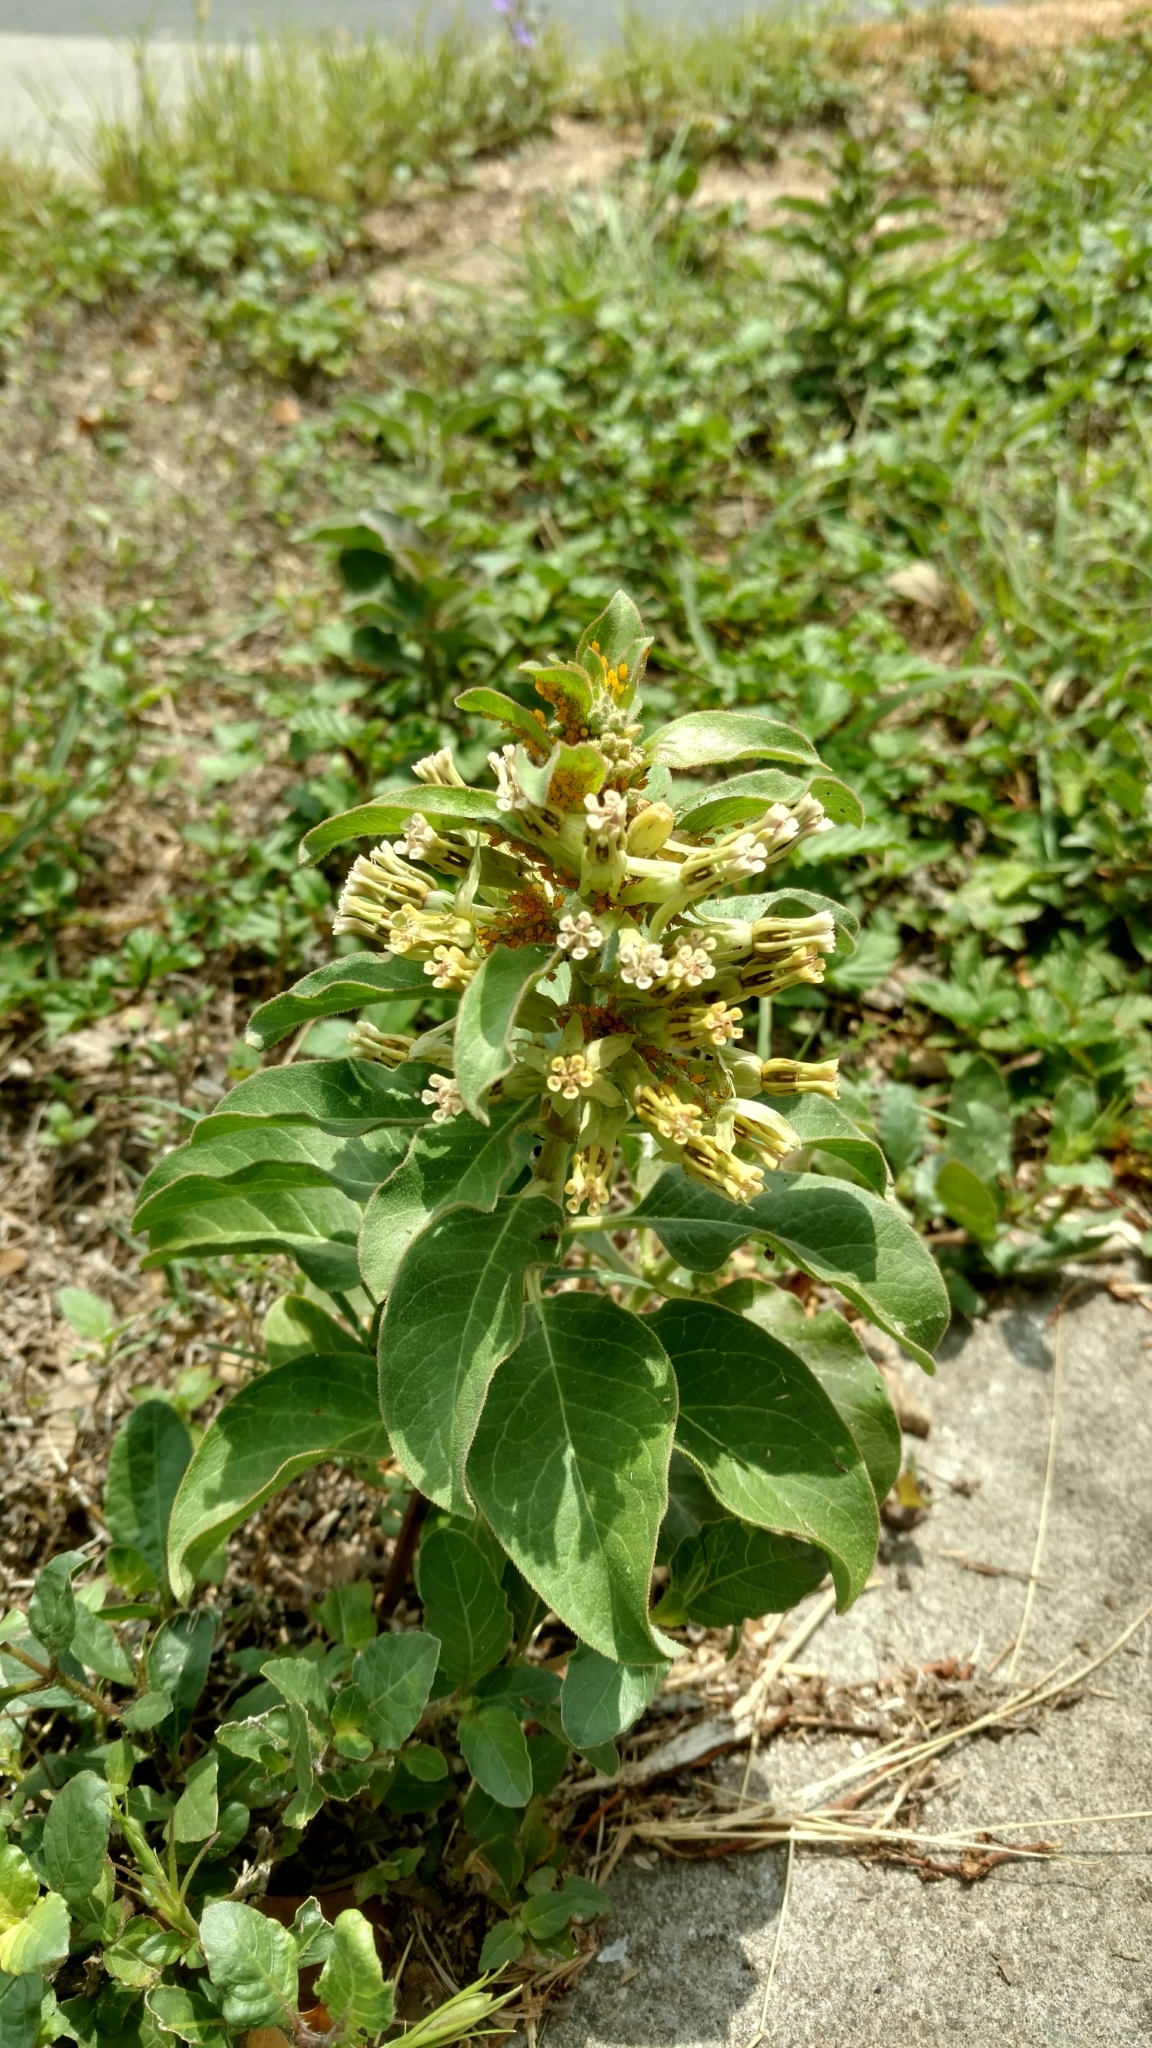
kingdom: Plantae
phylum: Tracheophyta
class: Magnoliopsida
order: Gentianales
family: Apocynaceae
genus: Asclepias
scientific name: Asclepias oenotheroides
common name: Zizotes milkweed
